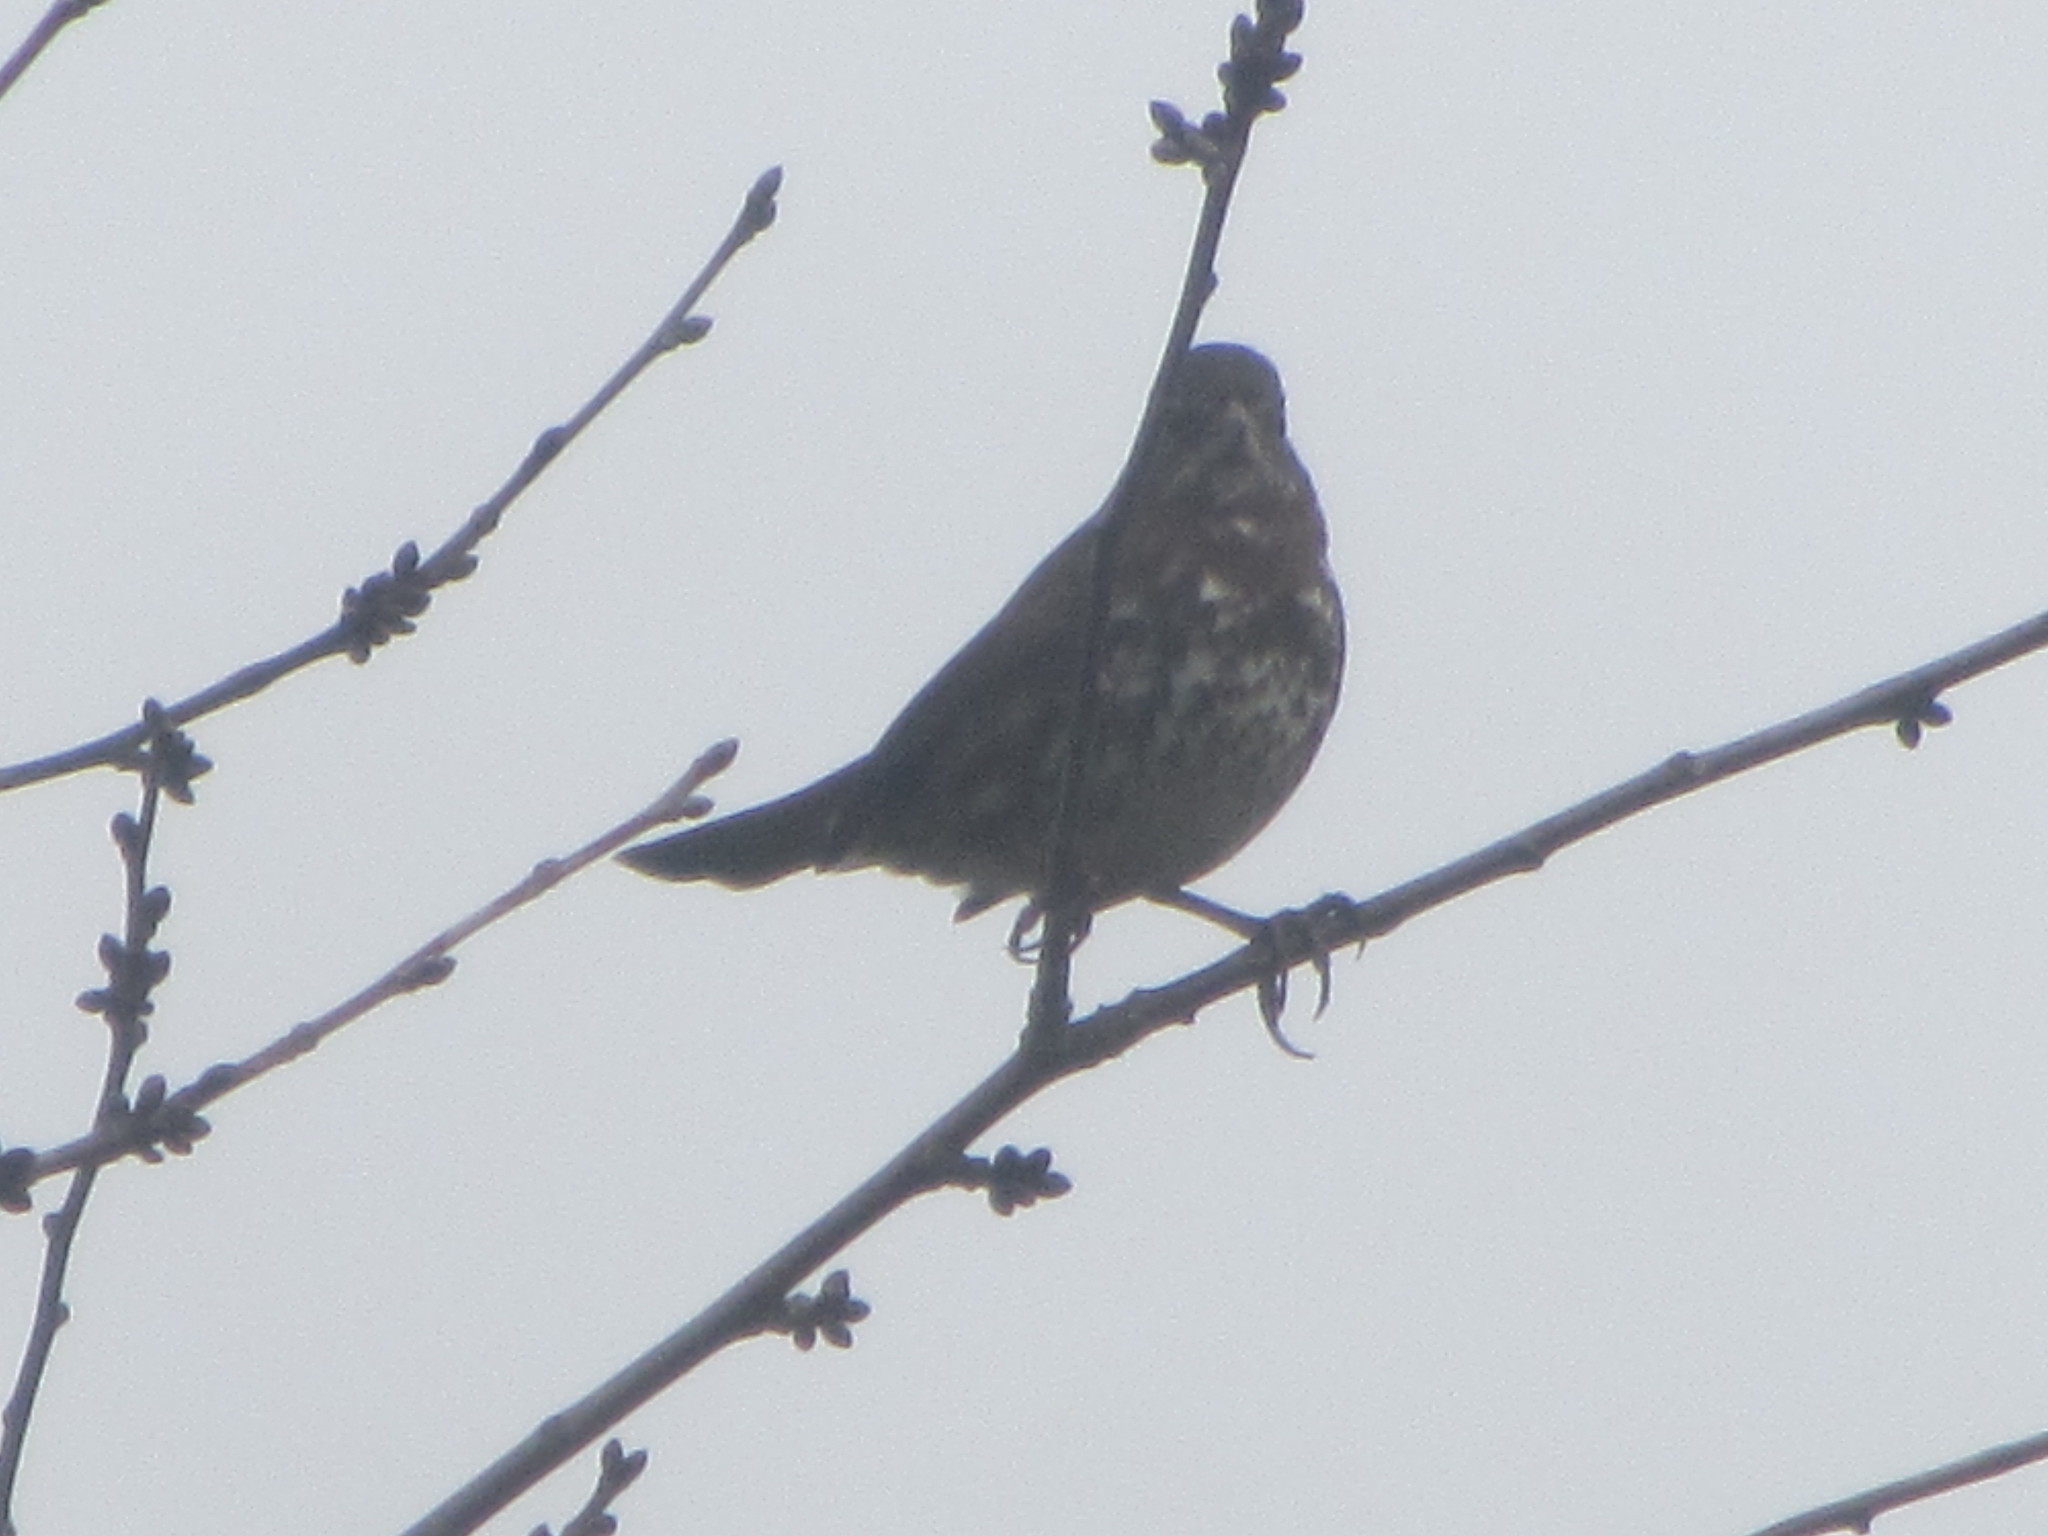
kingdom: Animalia
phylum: Chordata
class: Aves
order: Passeriformes
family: Passerellidae
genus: Passerella
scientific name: Passerella iliaca
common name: Fox sparrow
